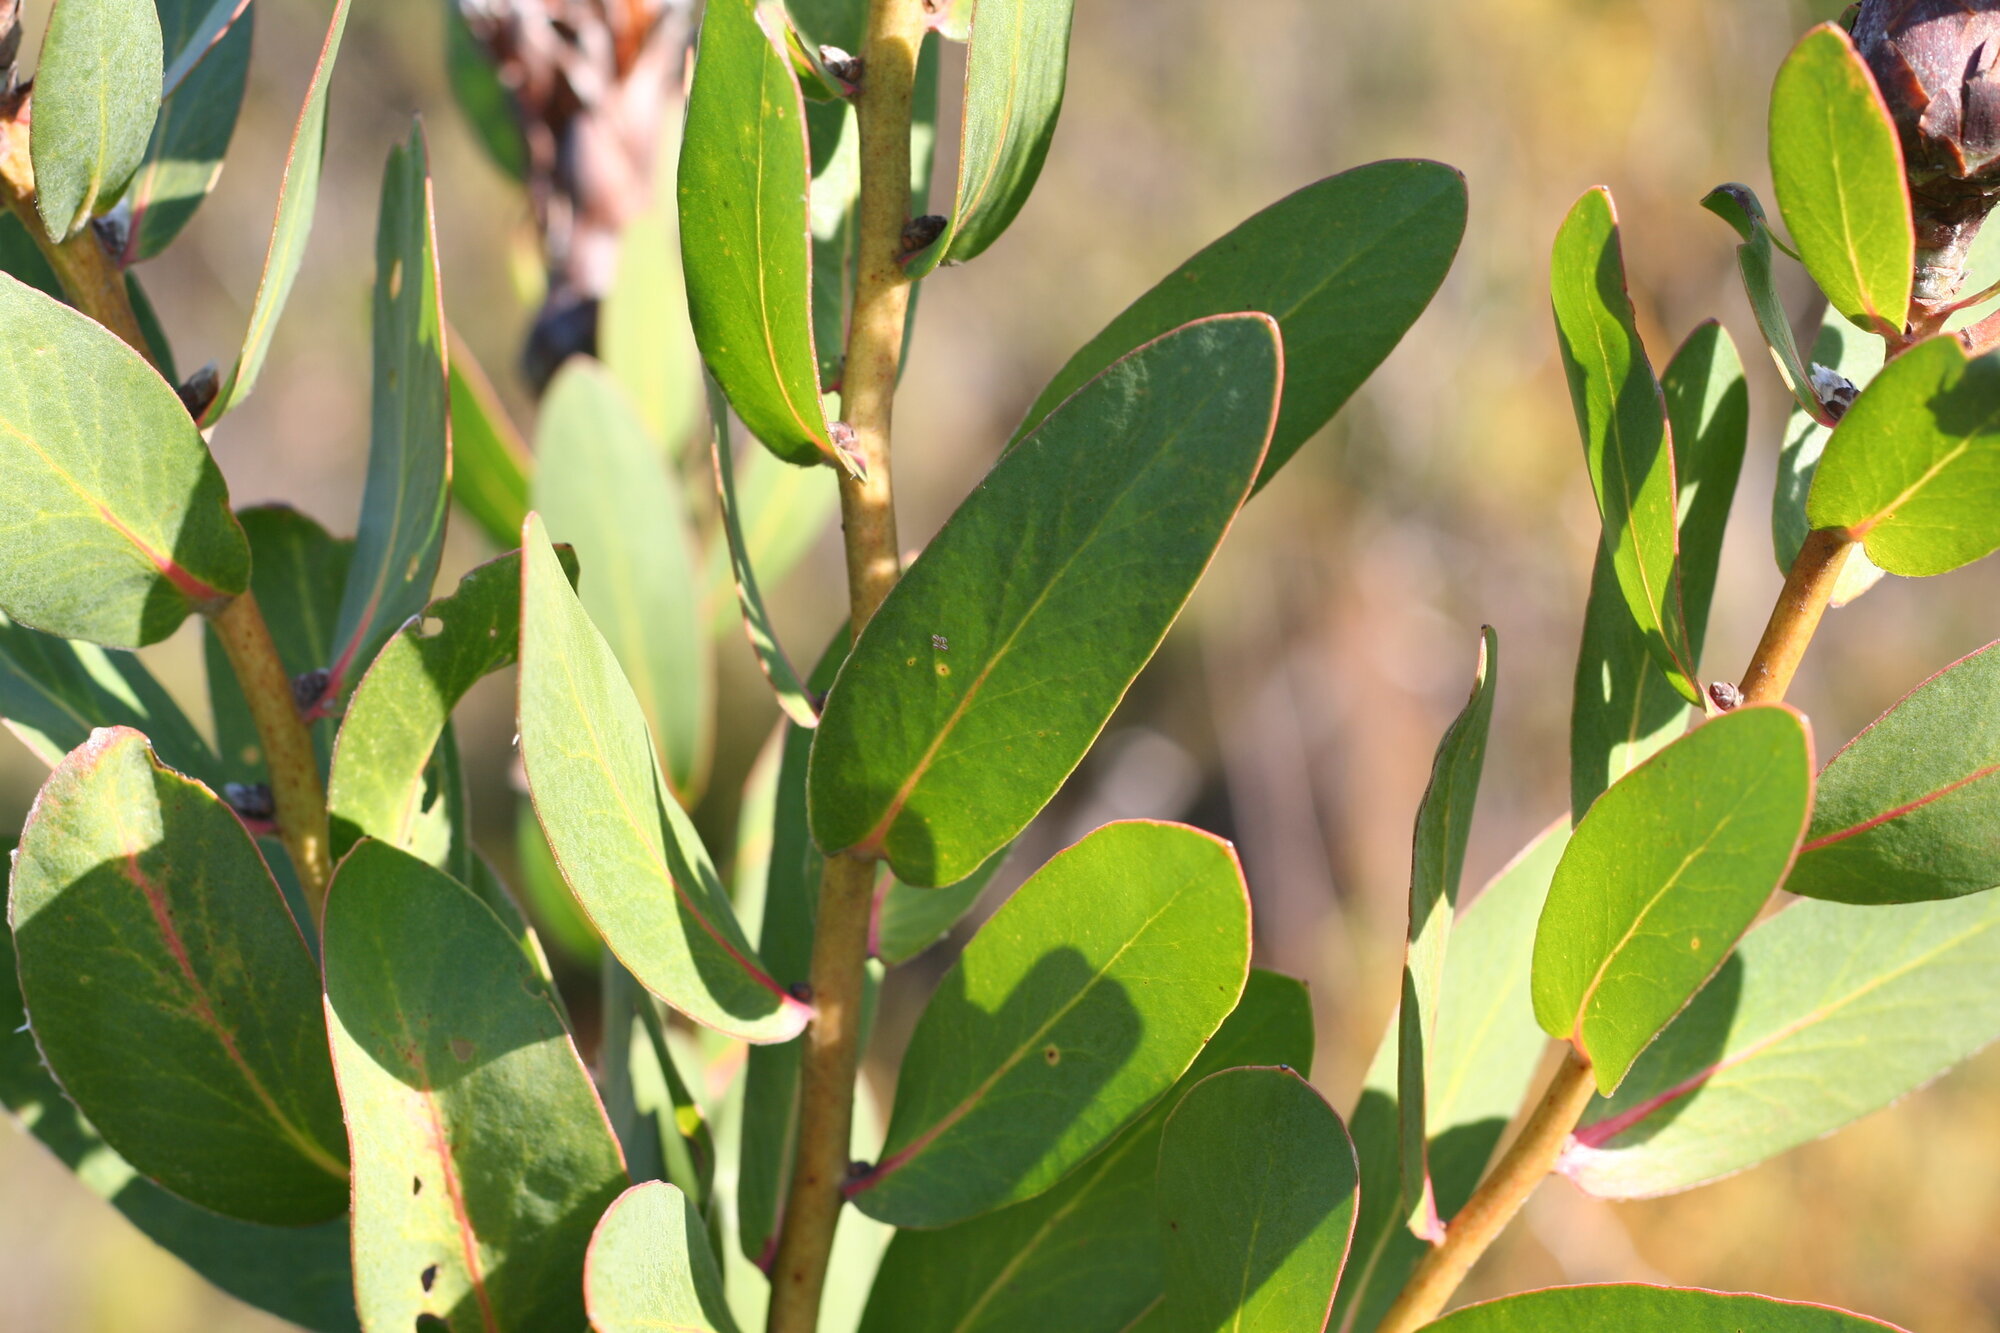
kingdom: Plantae
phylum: Tracheophyta
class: Magnoliopsida
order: Proteales
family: Proteaceae
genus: Protea
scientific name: Protea lacticolor
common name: Hottentot sugarbush
